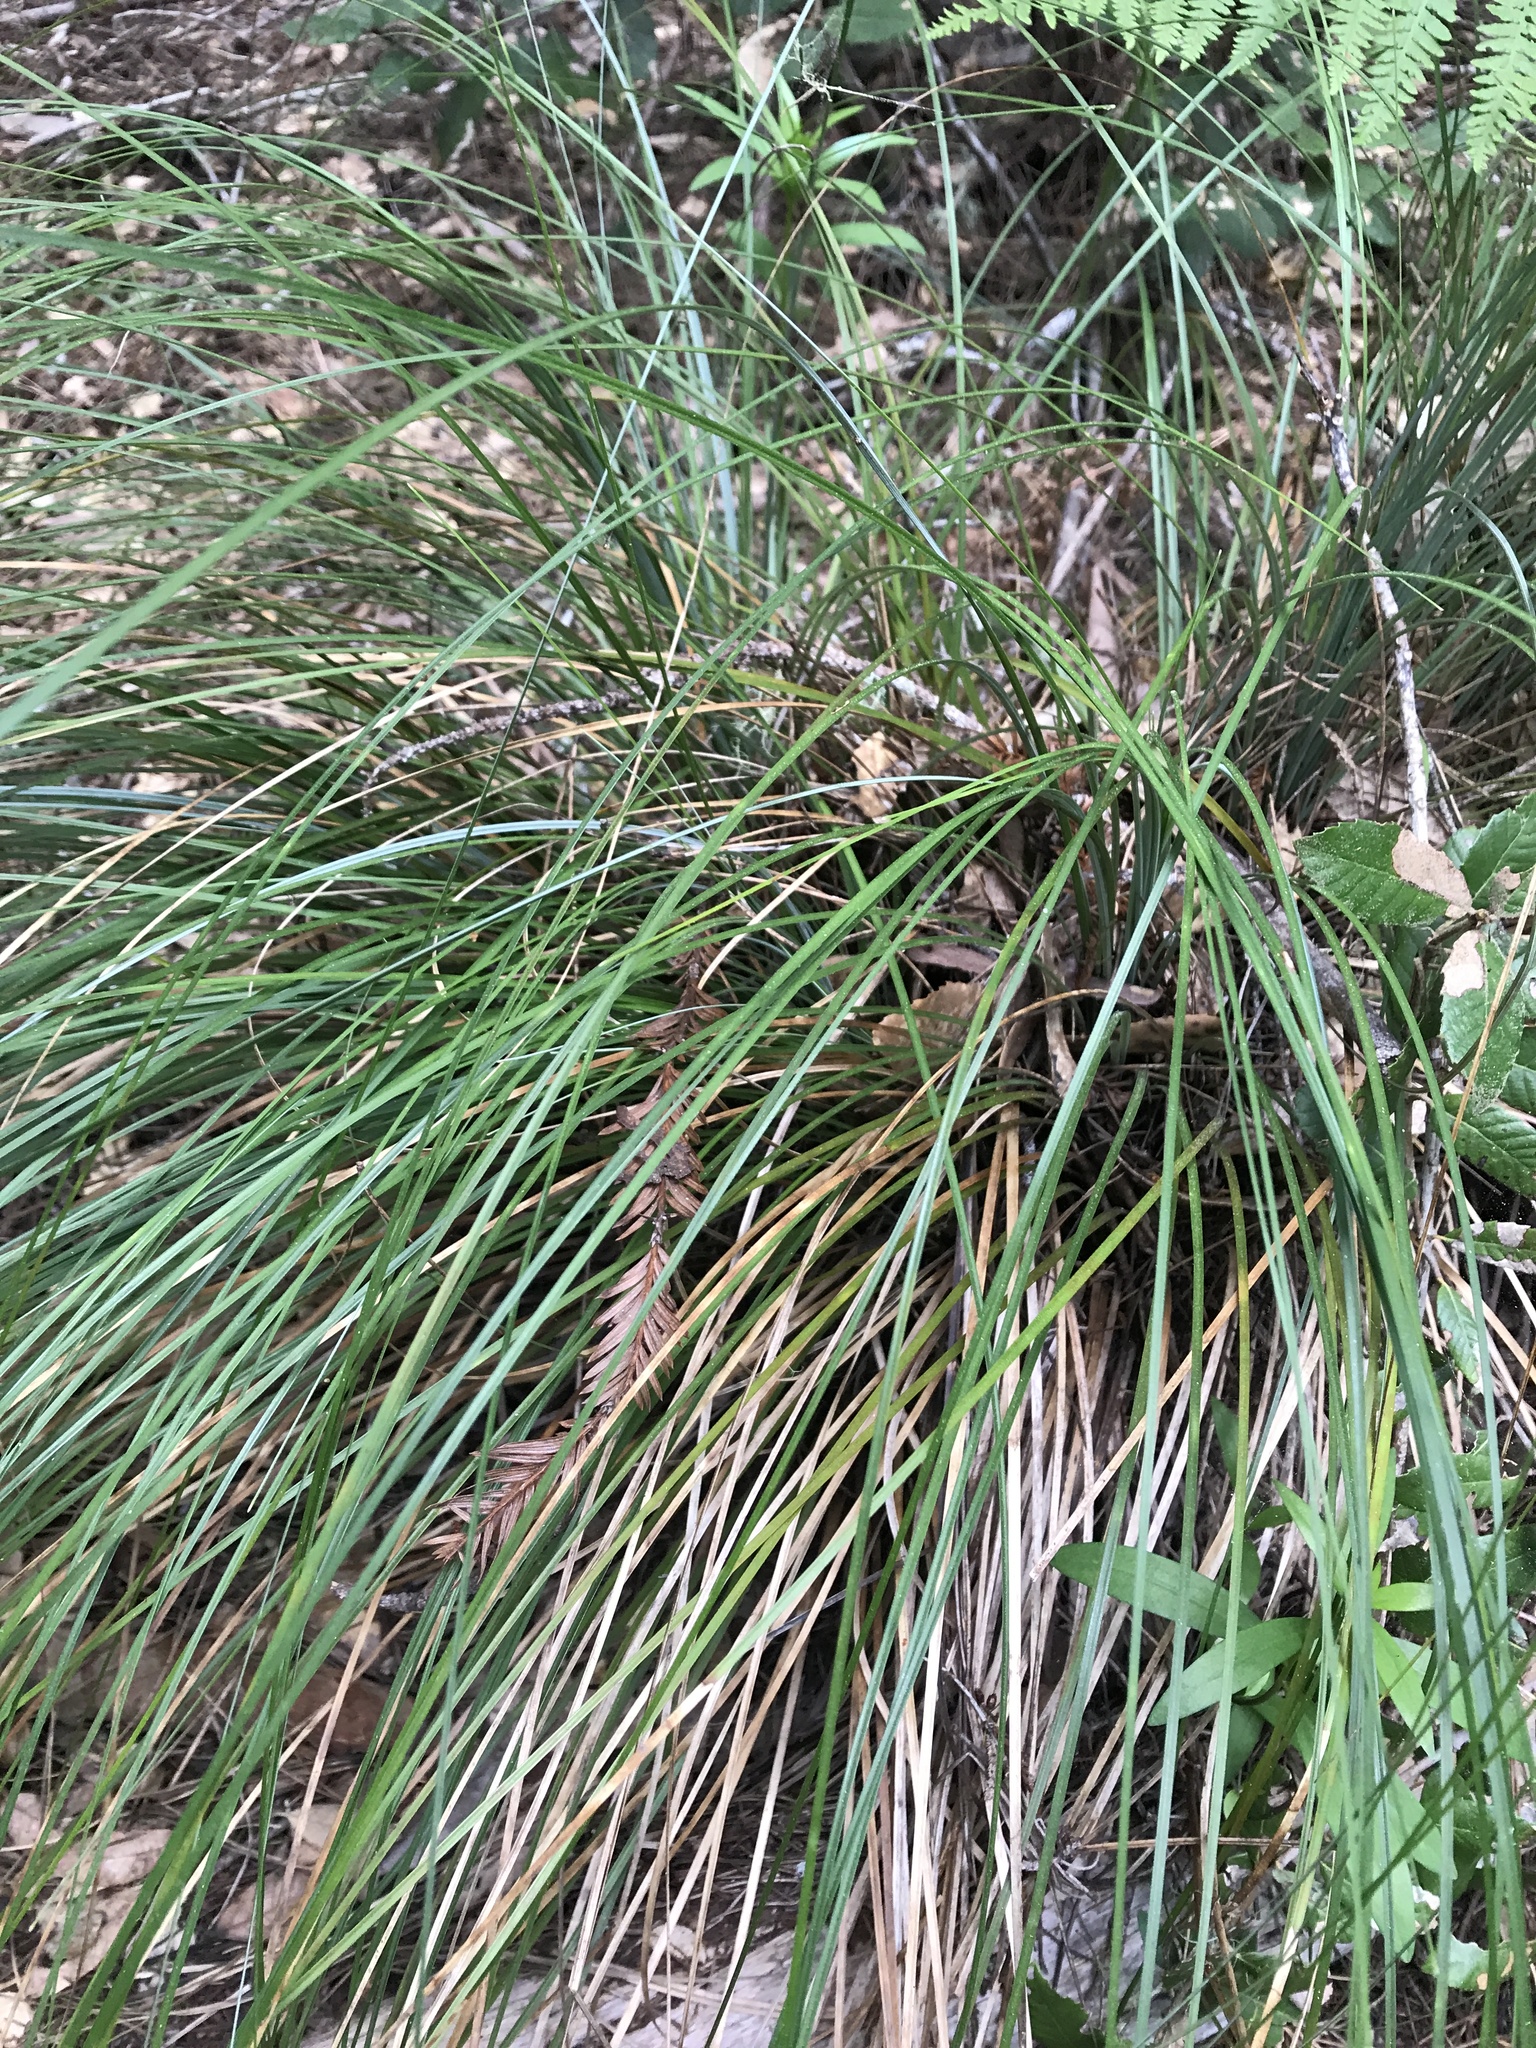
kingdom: Plantae
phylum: Tracheophyta
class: Liliopsida
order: Liliales
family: Melanthiaceae
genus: Xerophyllum
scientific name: Xerophyllum tenax
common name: Bear-grass
